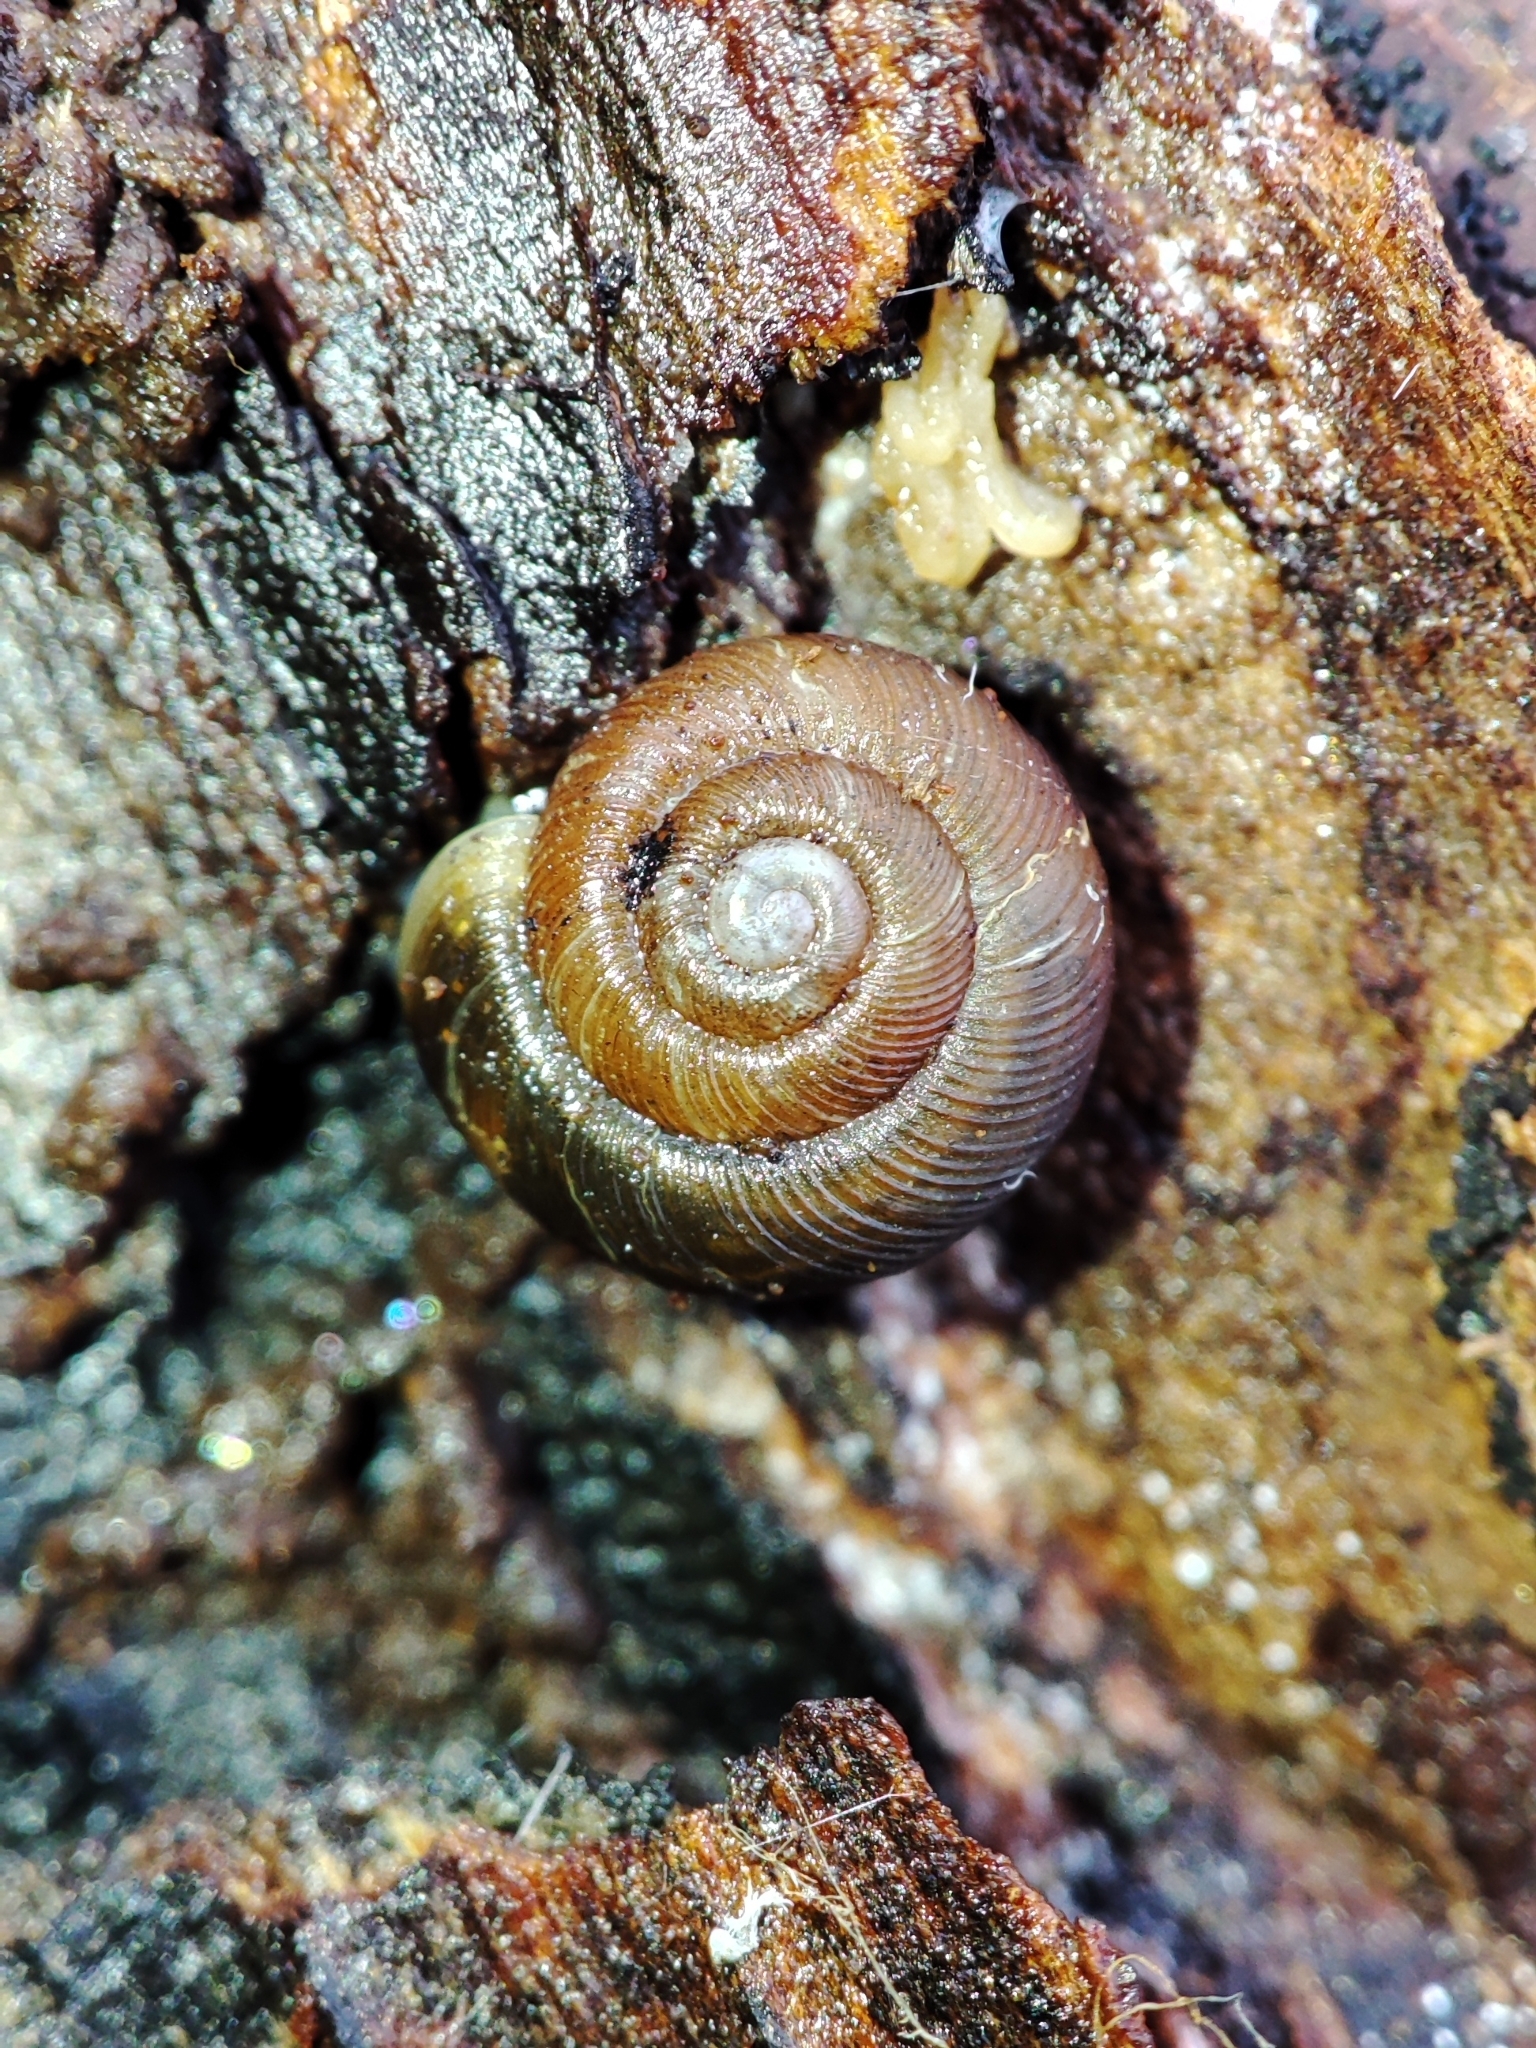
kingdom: Animalia
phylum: Mollusca
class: Gastropoda
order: Stylommatophora
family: Discidae
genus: Discus
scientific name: Discus ruderatus
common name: Brown disc snail
